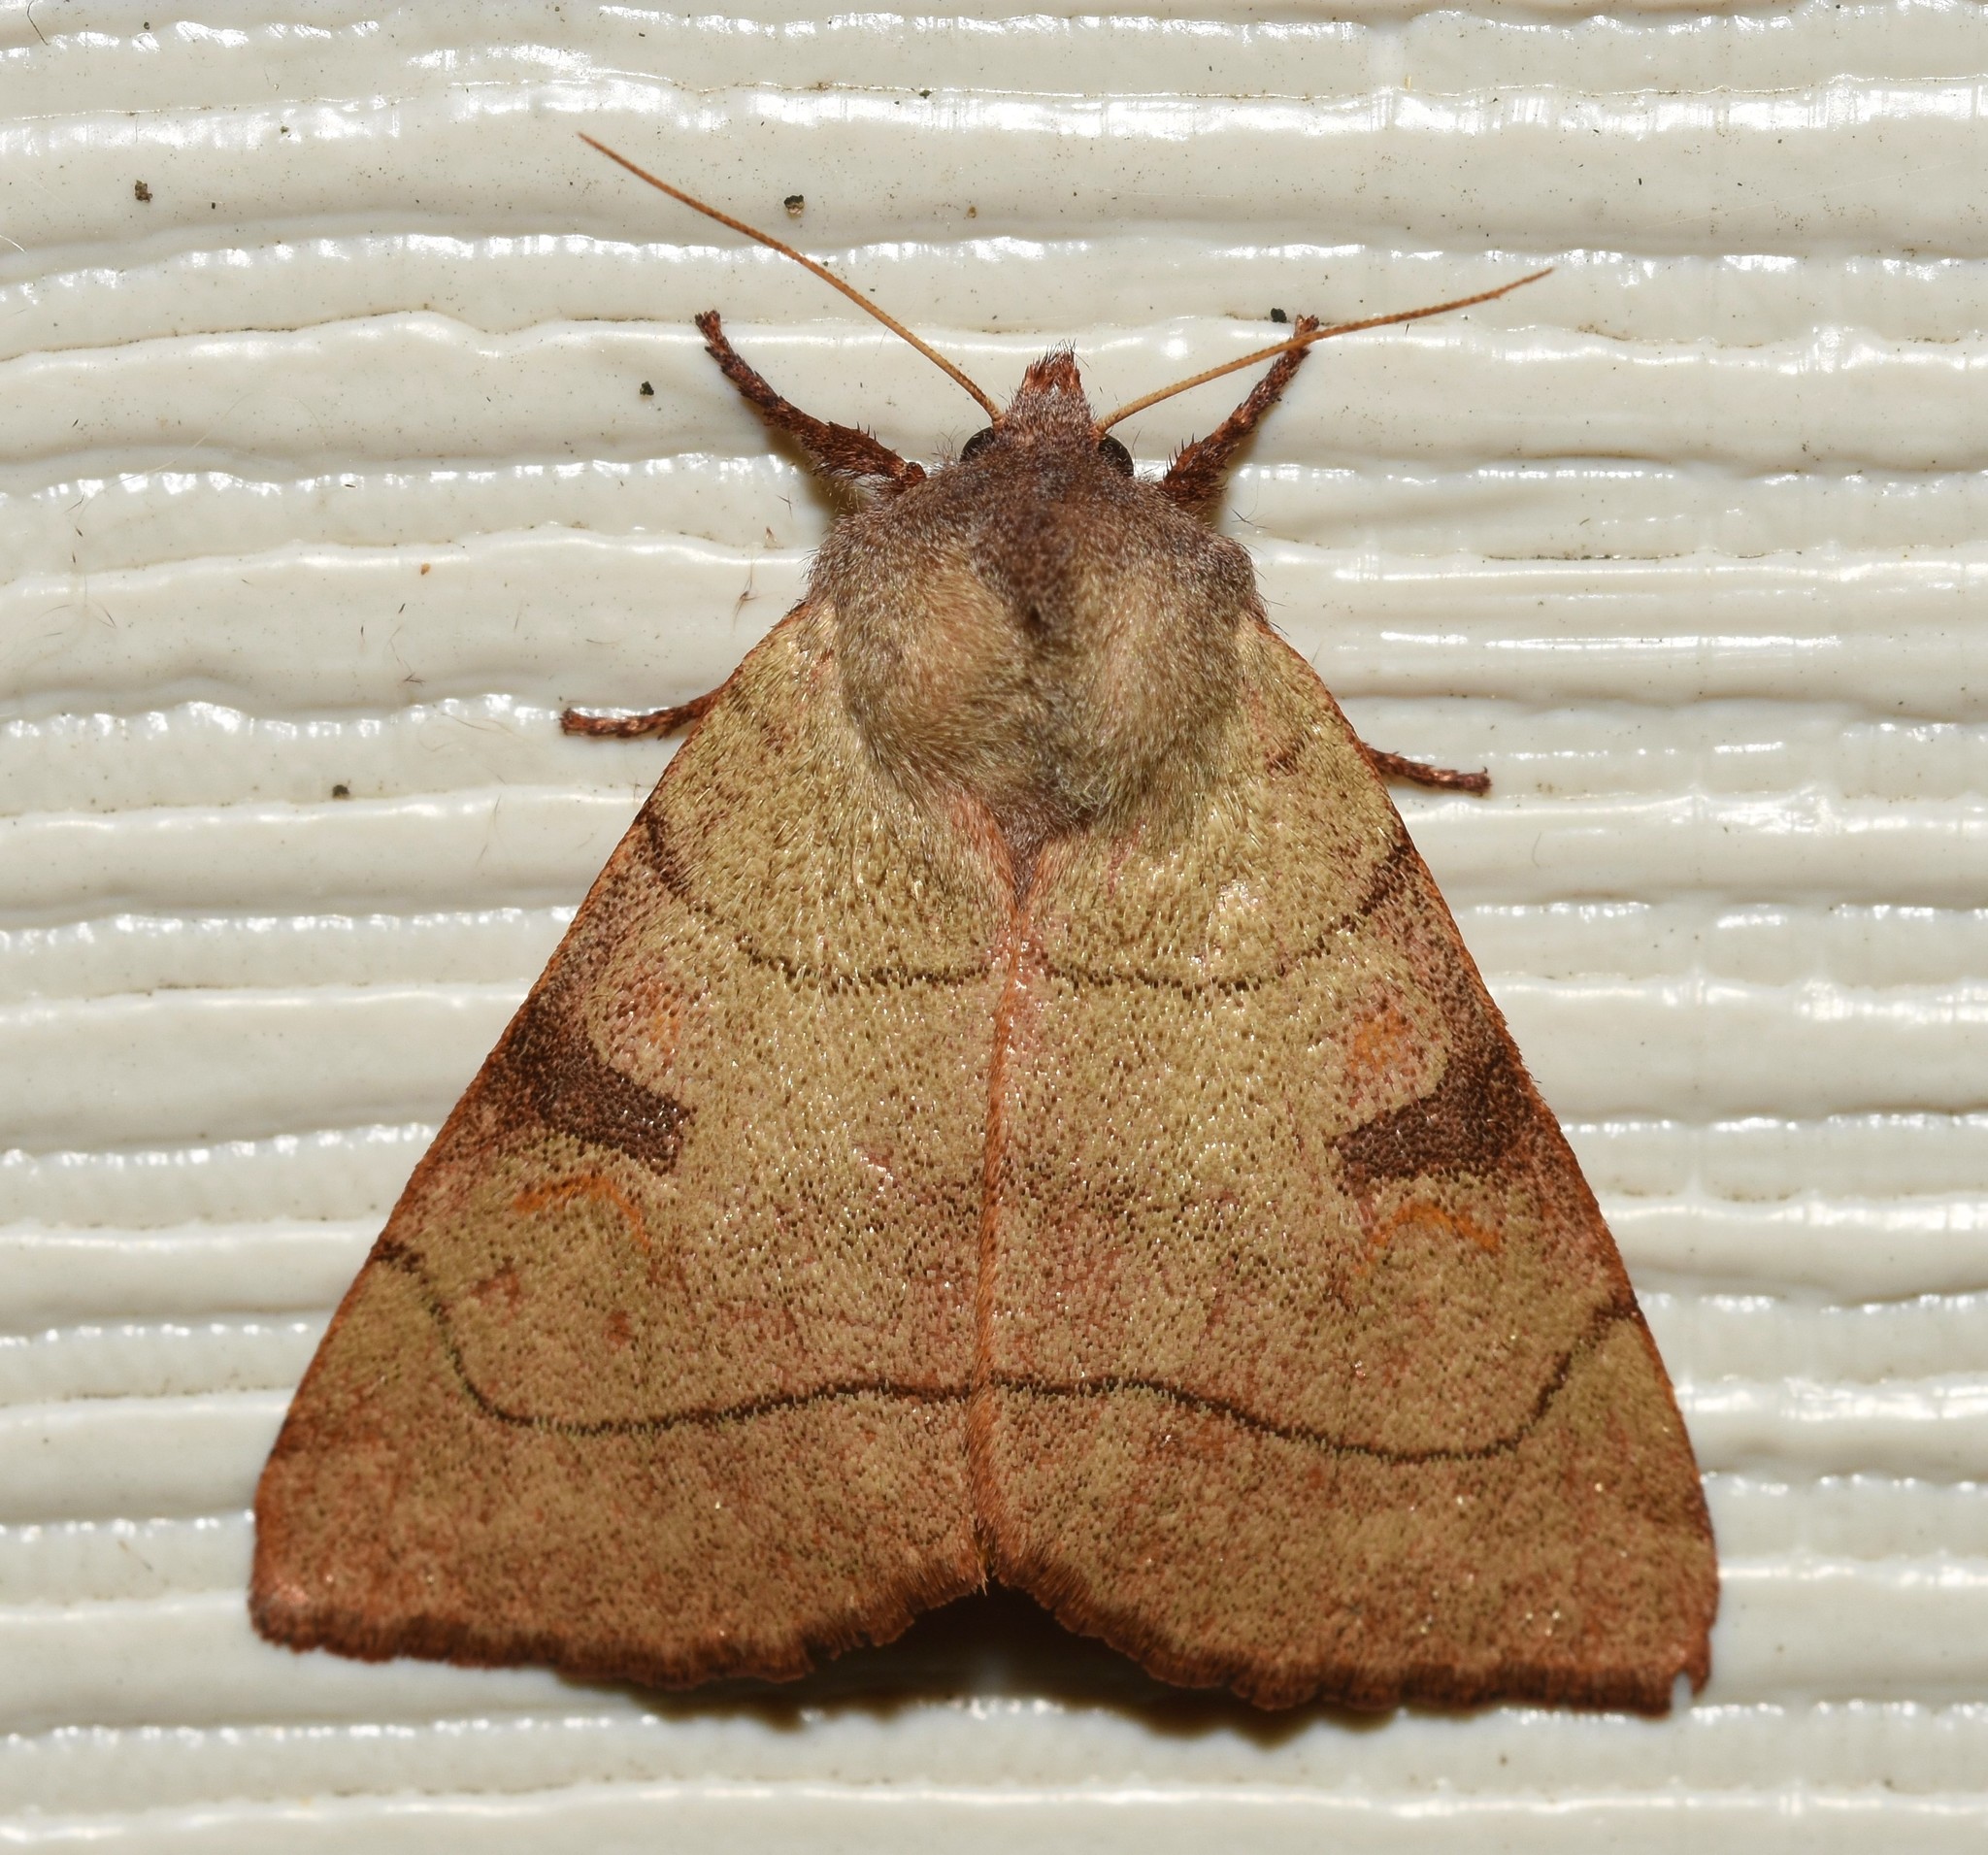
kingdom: Animalia
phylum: Arthropoda
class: Insecta
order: Lepidoptera
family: Noctuidae
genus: Choephora
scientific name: Choephora fungorum
